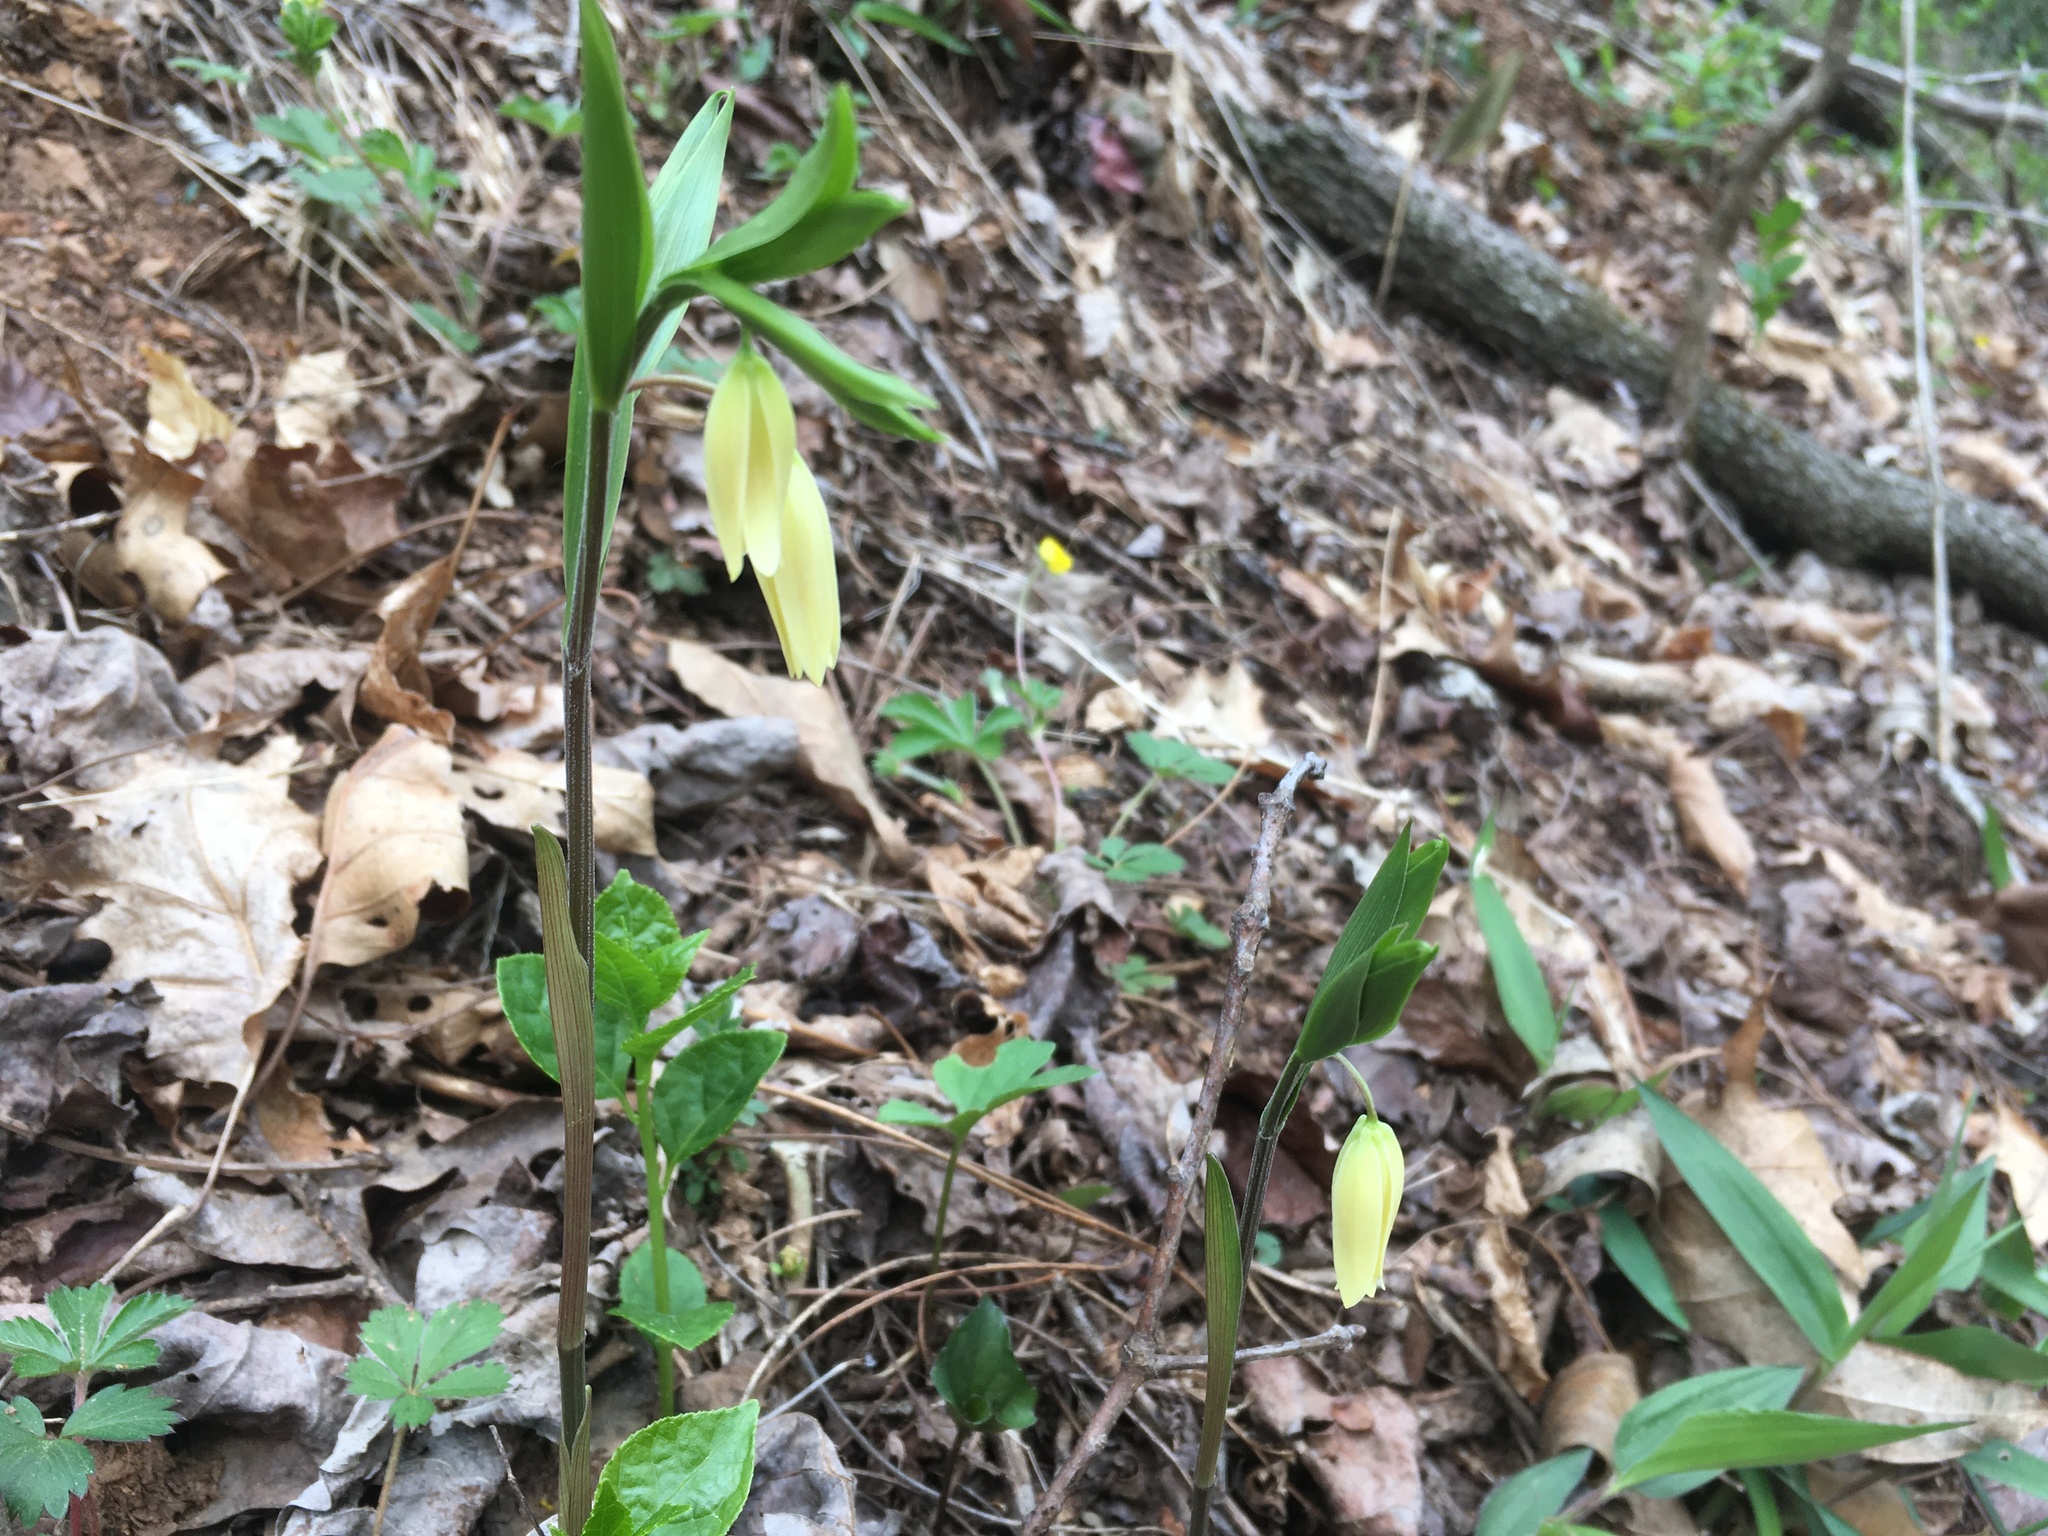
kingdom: Plantae
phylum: Tracheophyta
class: Liliopsida
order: Liliales
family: Colchicaceae
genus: Uvularia
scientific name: Uvularia puberula
